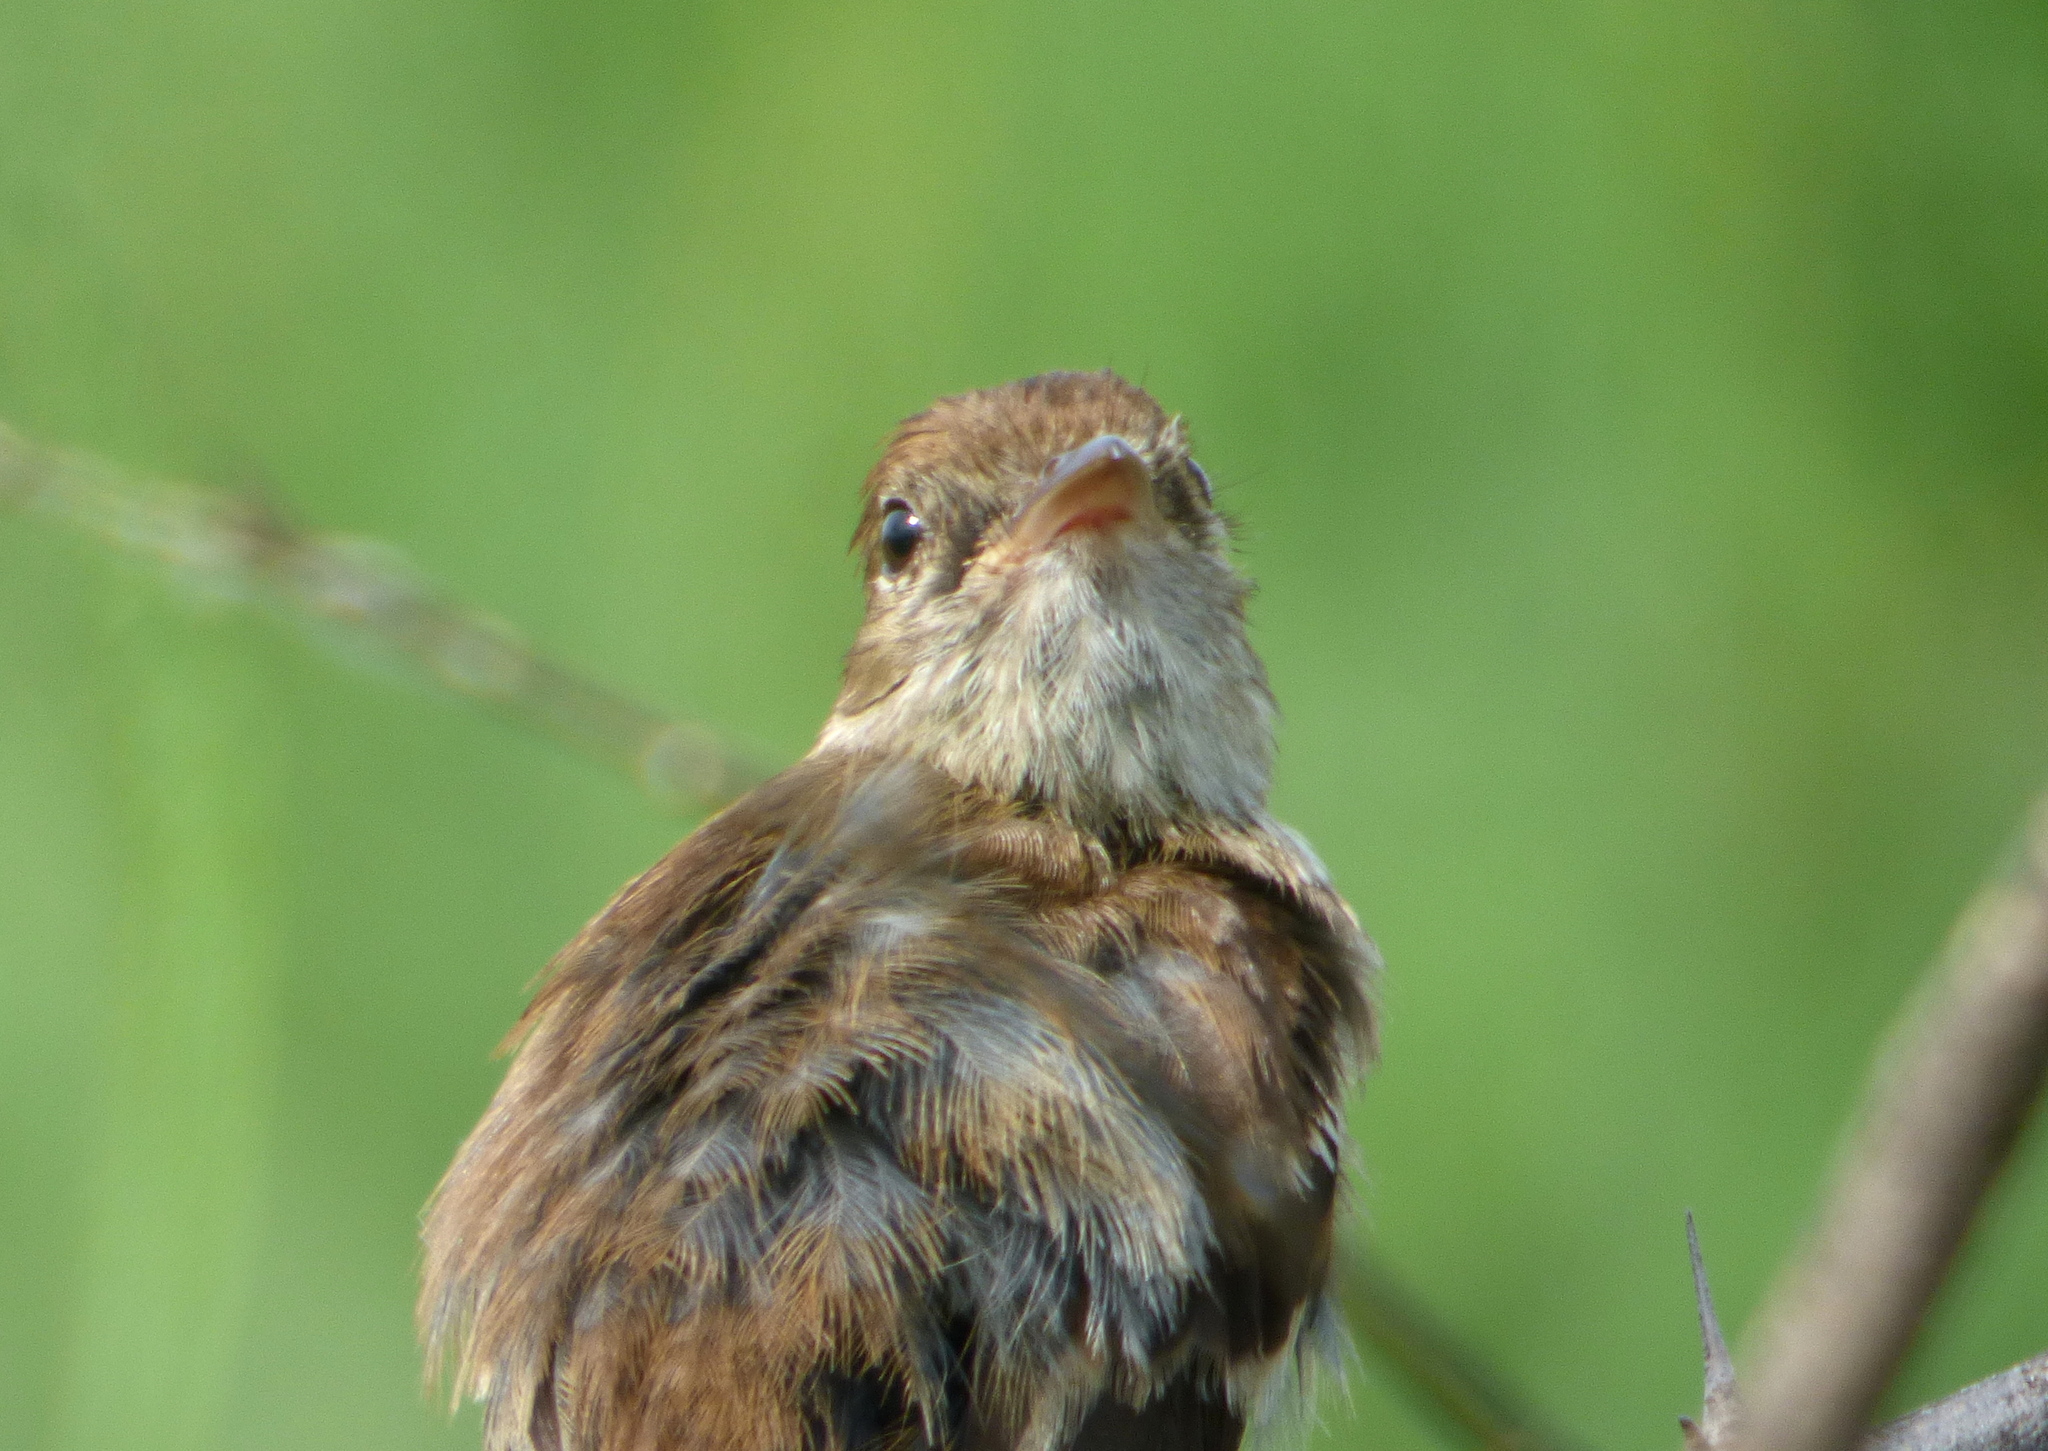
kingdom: Animalia
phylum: Chordata
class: Aves
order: Passeriformes
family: Tyrannidae
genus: Myiophobus
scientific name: Myiophobus fasciatus
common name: Bran-colored flycatcher
